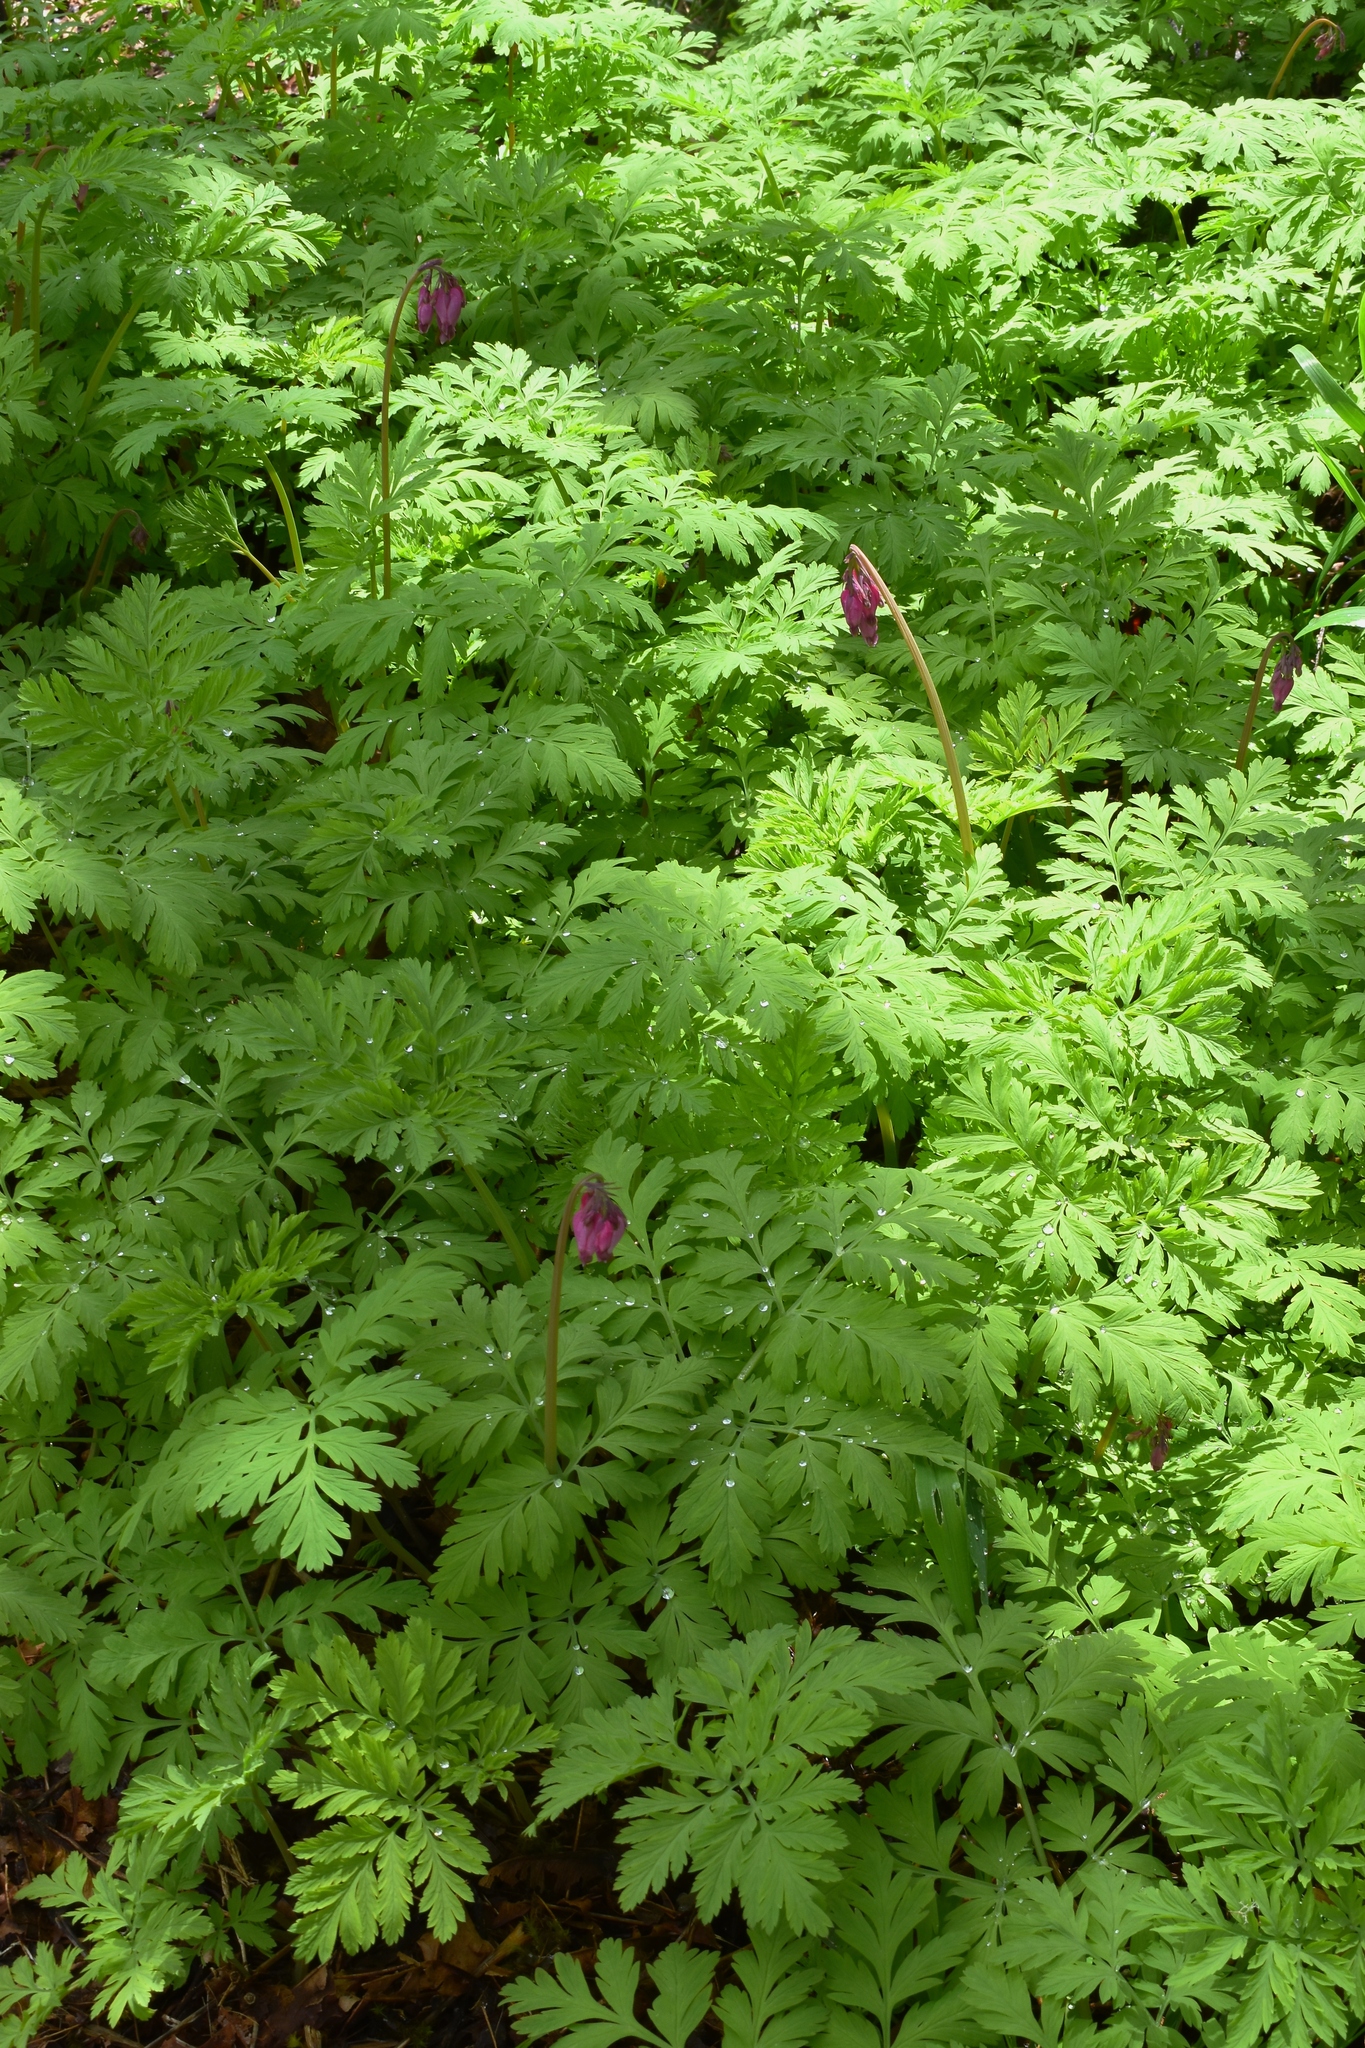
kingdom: Plantae
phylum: Tracheophyta
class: Magnoliopsida
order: Ranunculales
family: Papaveraceae
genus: Dicentra
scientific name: Dicentra formosa
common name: Bleeding-heart
